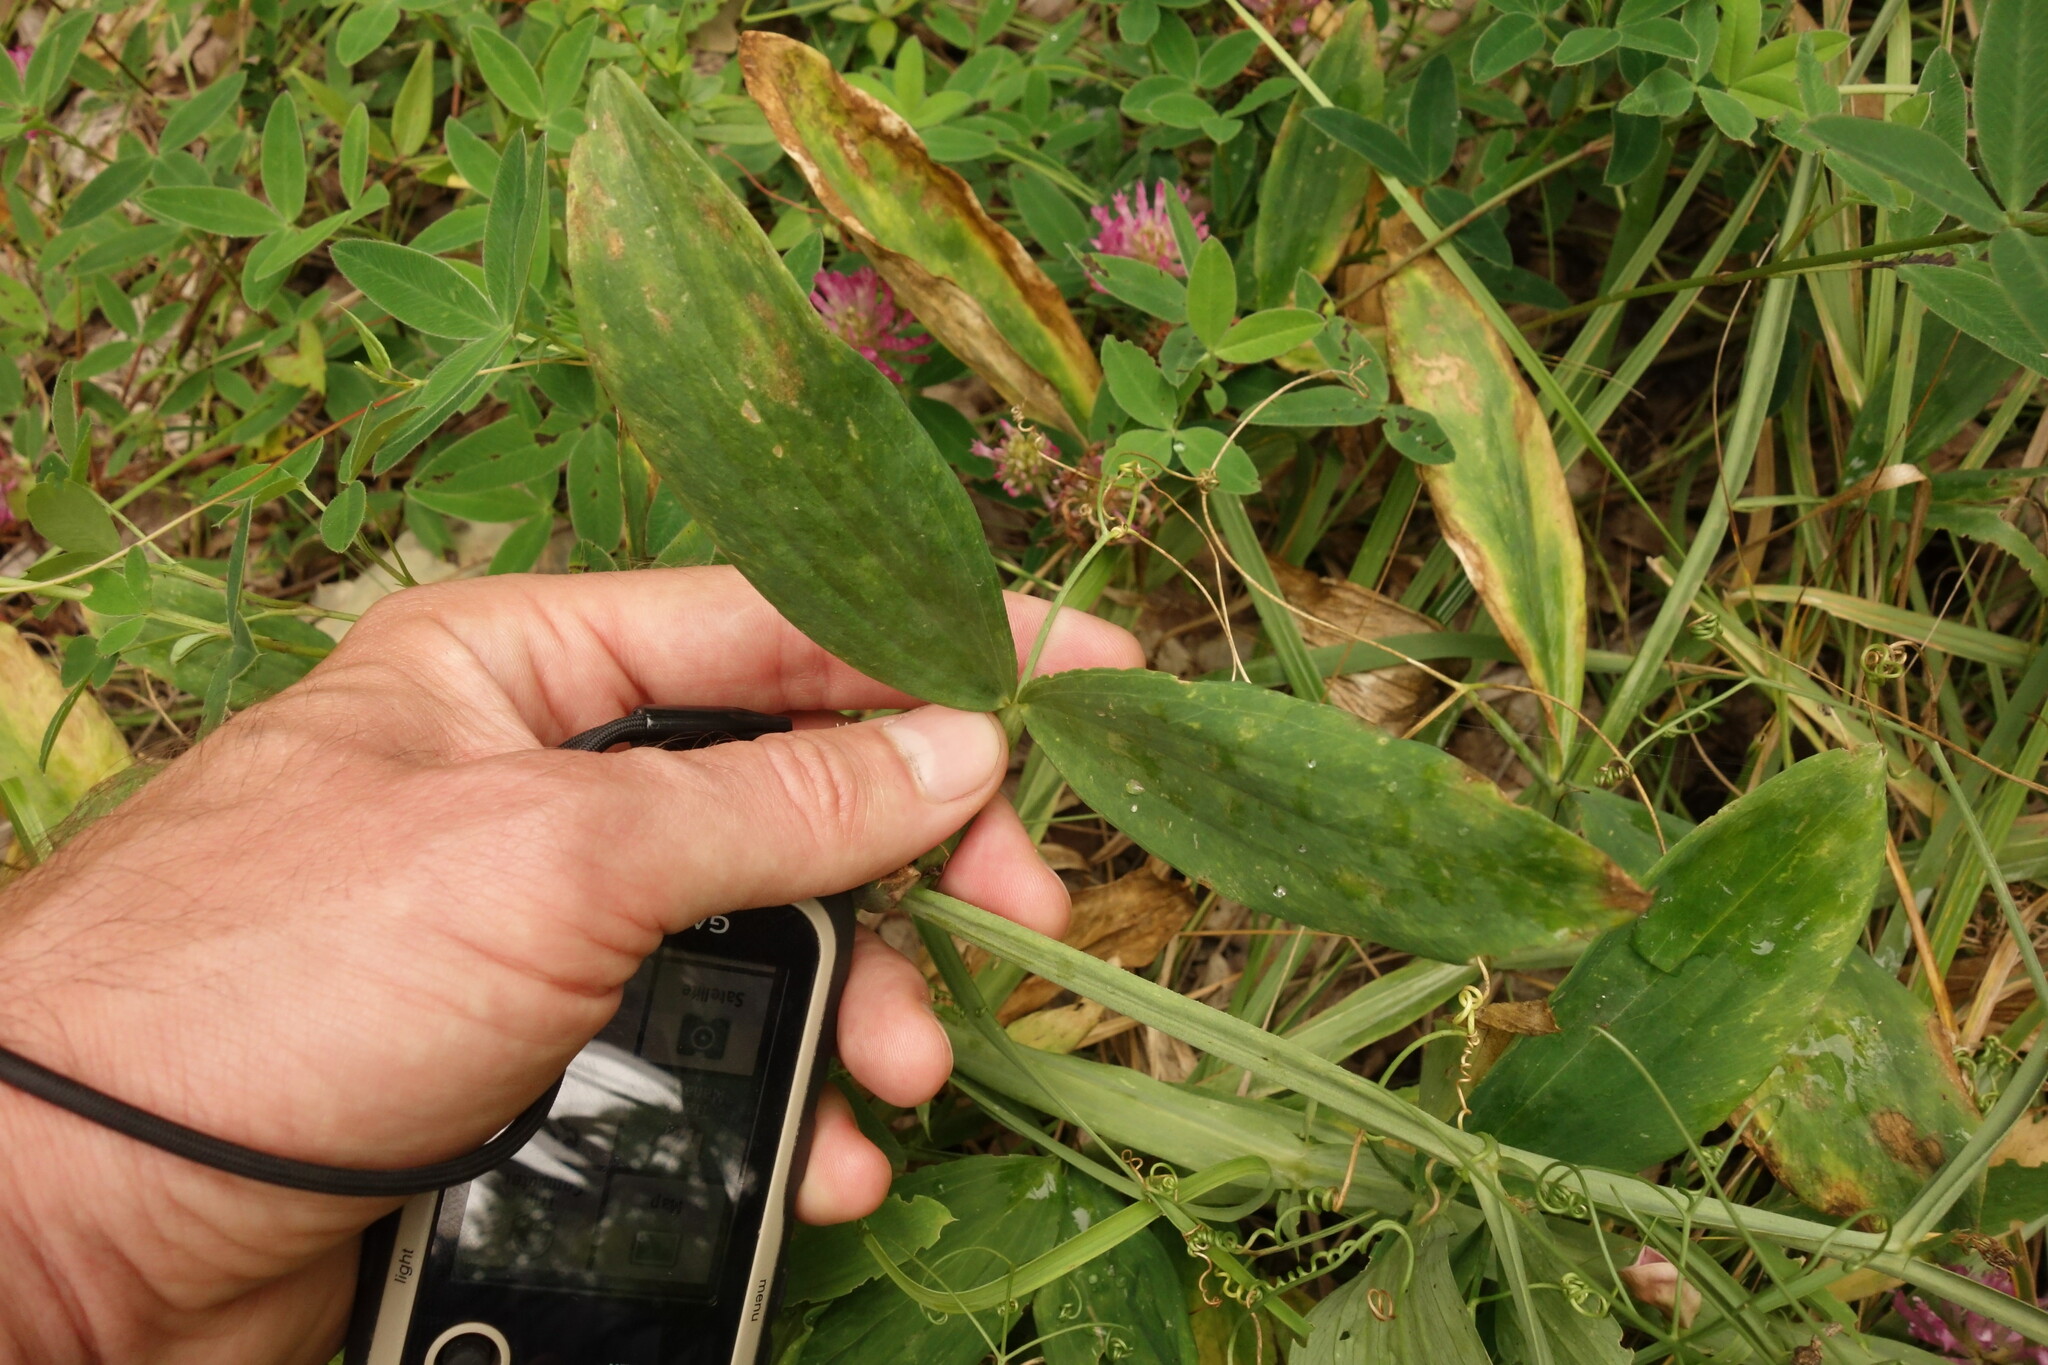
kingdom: Plantae
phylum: Tracheophyta
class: Magnoliopsida
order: Fabales
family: Fabaceae
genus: Lathyrus
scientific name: Lathyrus sylvestris
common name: Flat pea
